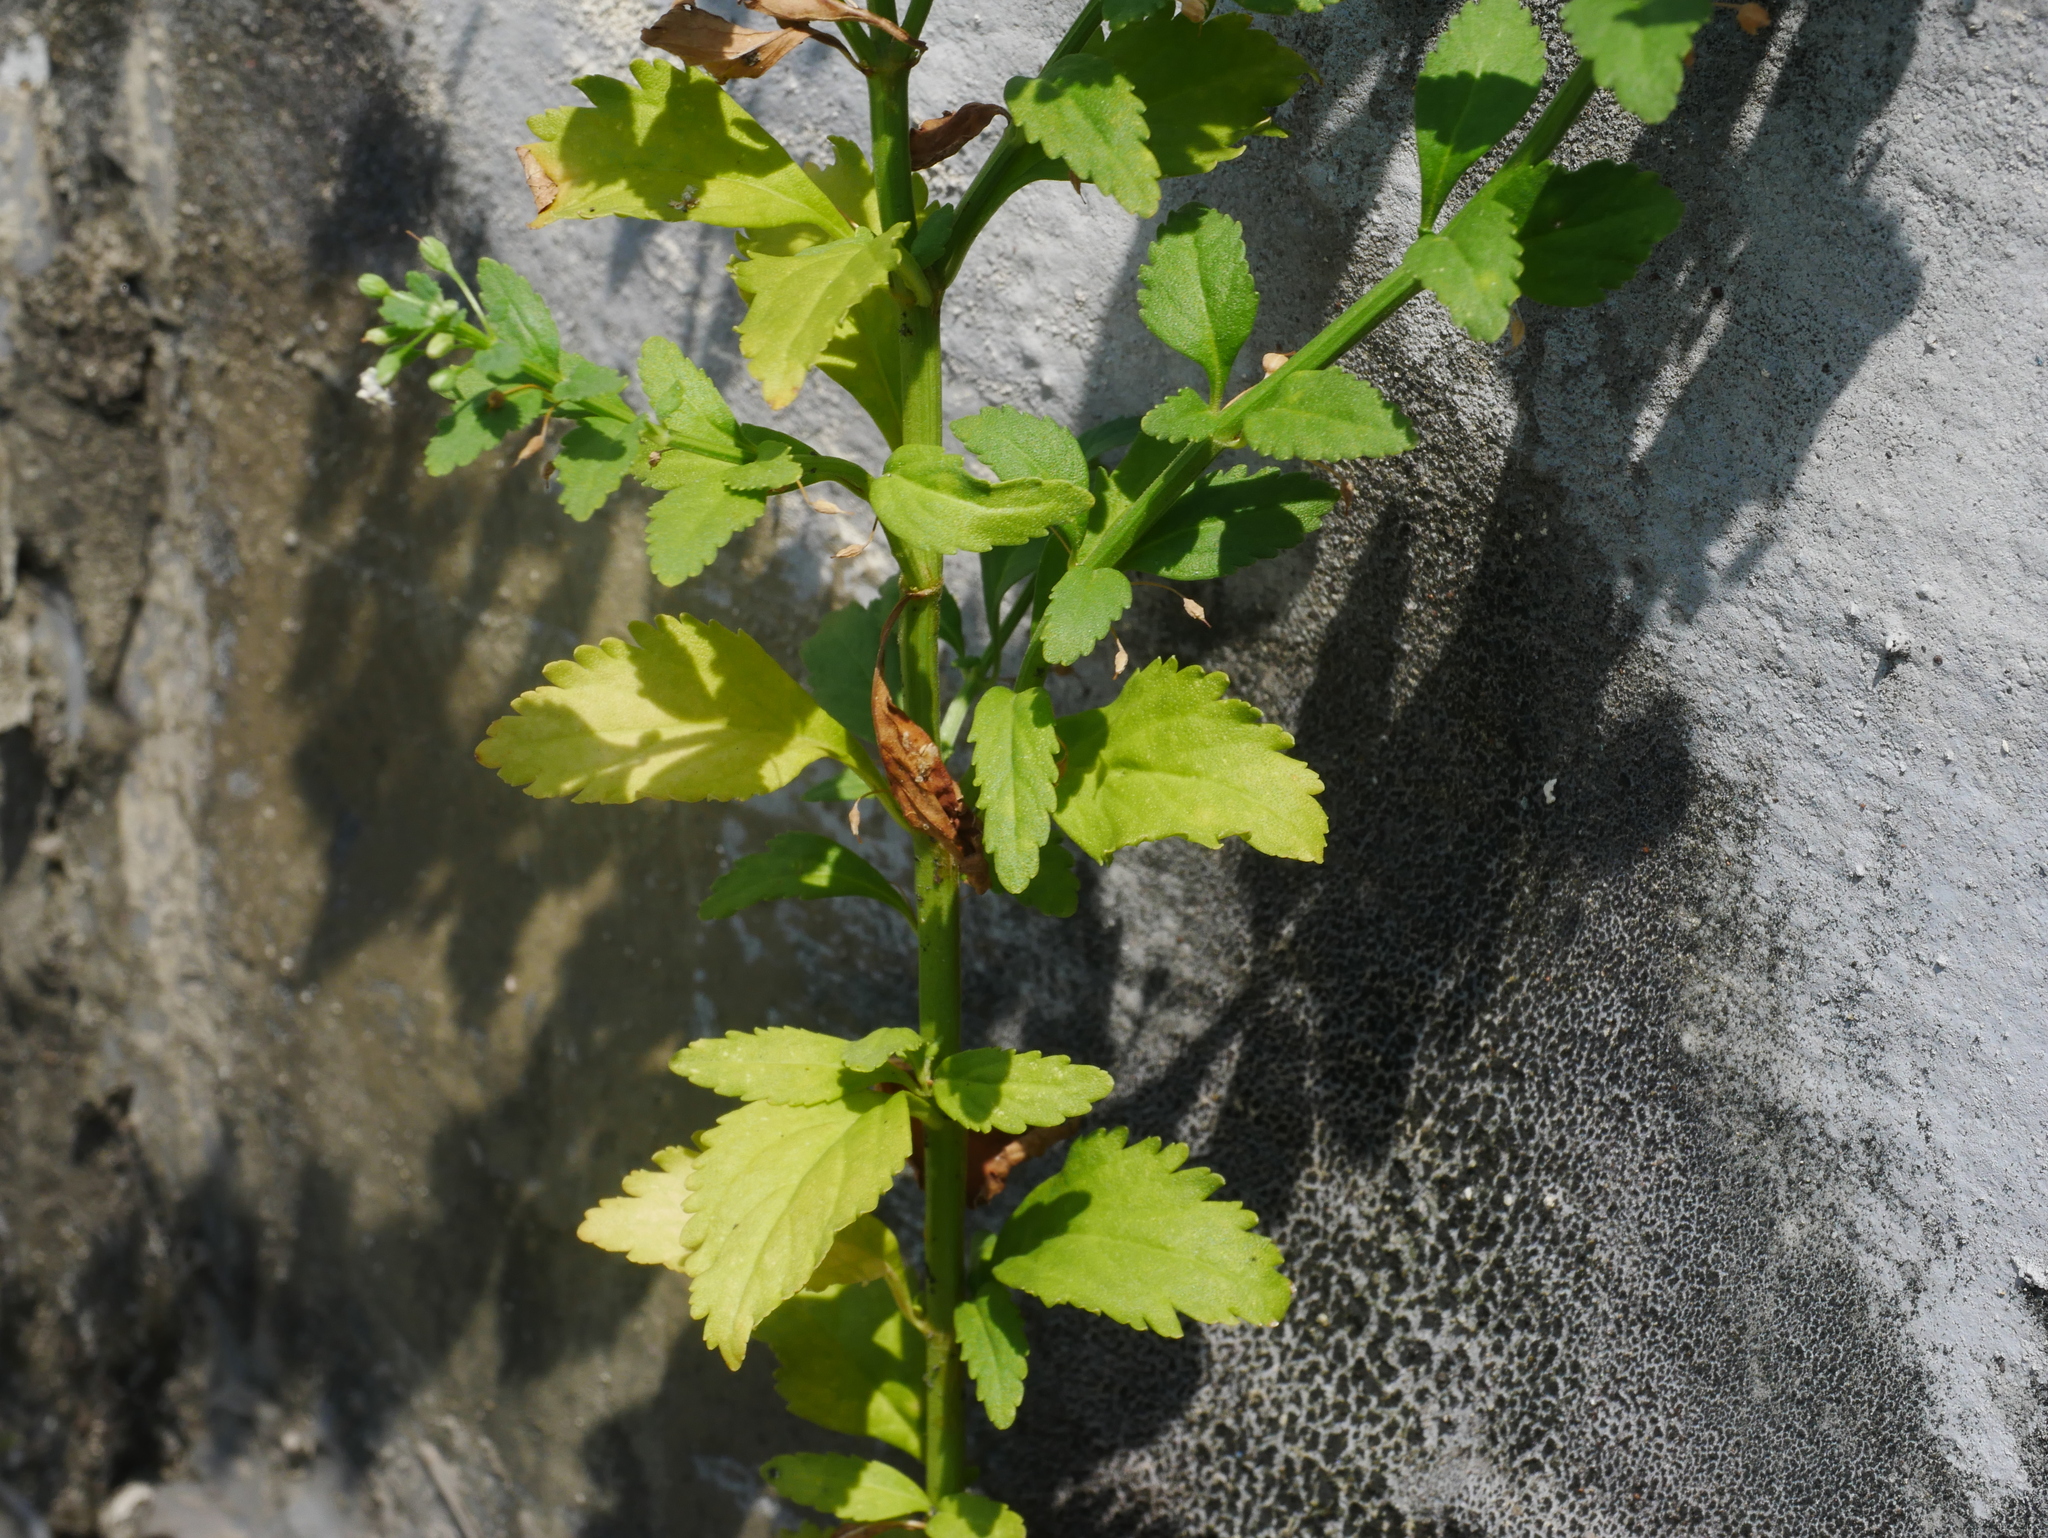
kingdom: Plantae
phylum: Tracheophyta
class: Magnoliopsida
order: Lamiales
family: Plantaginaceae
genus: Scoparia
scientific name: Scoparia dulcis
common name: Scoparia-weed
